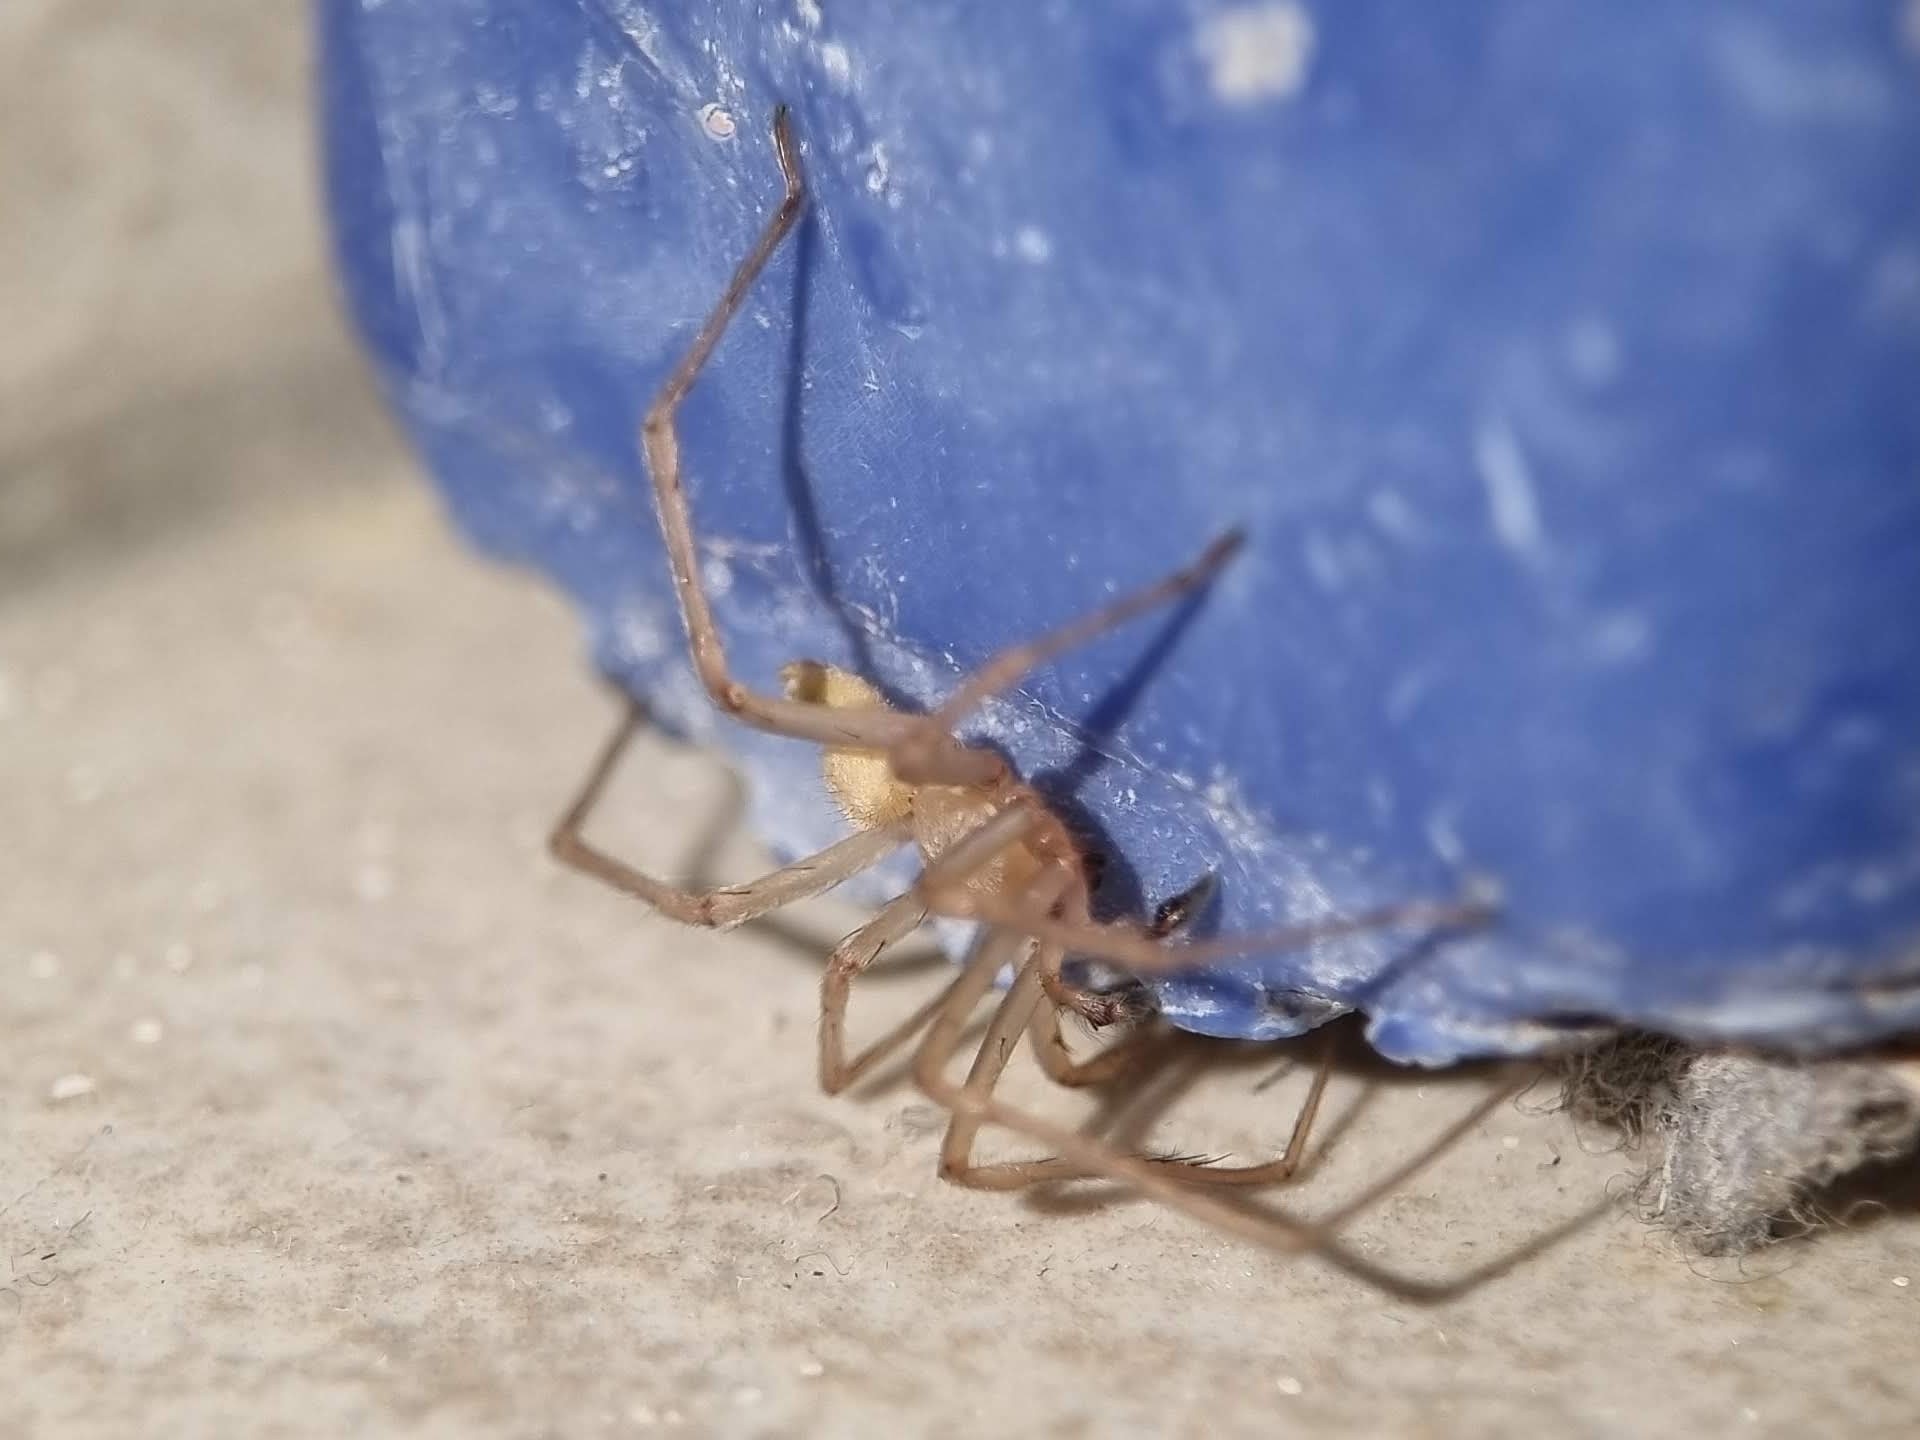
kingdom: Animalia
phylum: Arthropoda
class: Arachnida
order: Araneae
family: Cheiracanthiidae
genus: Cheiracanthium
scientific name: Cheiracanthium mildei
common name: Northern yellow sac spider
